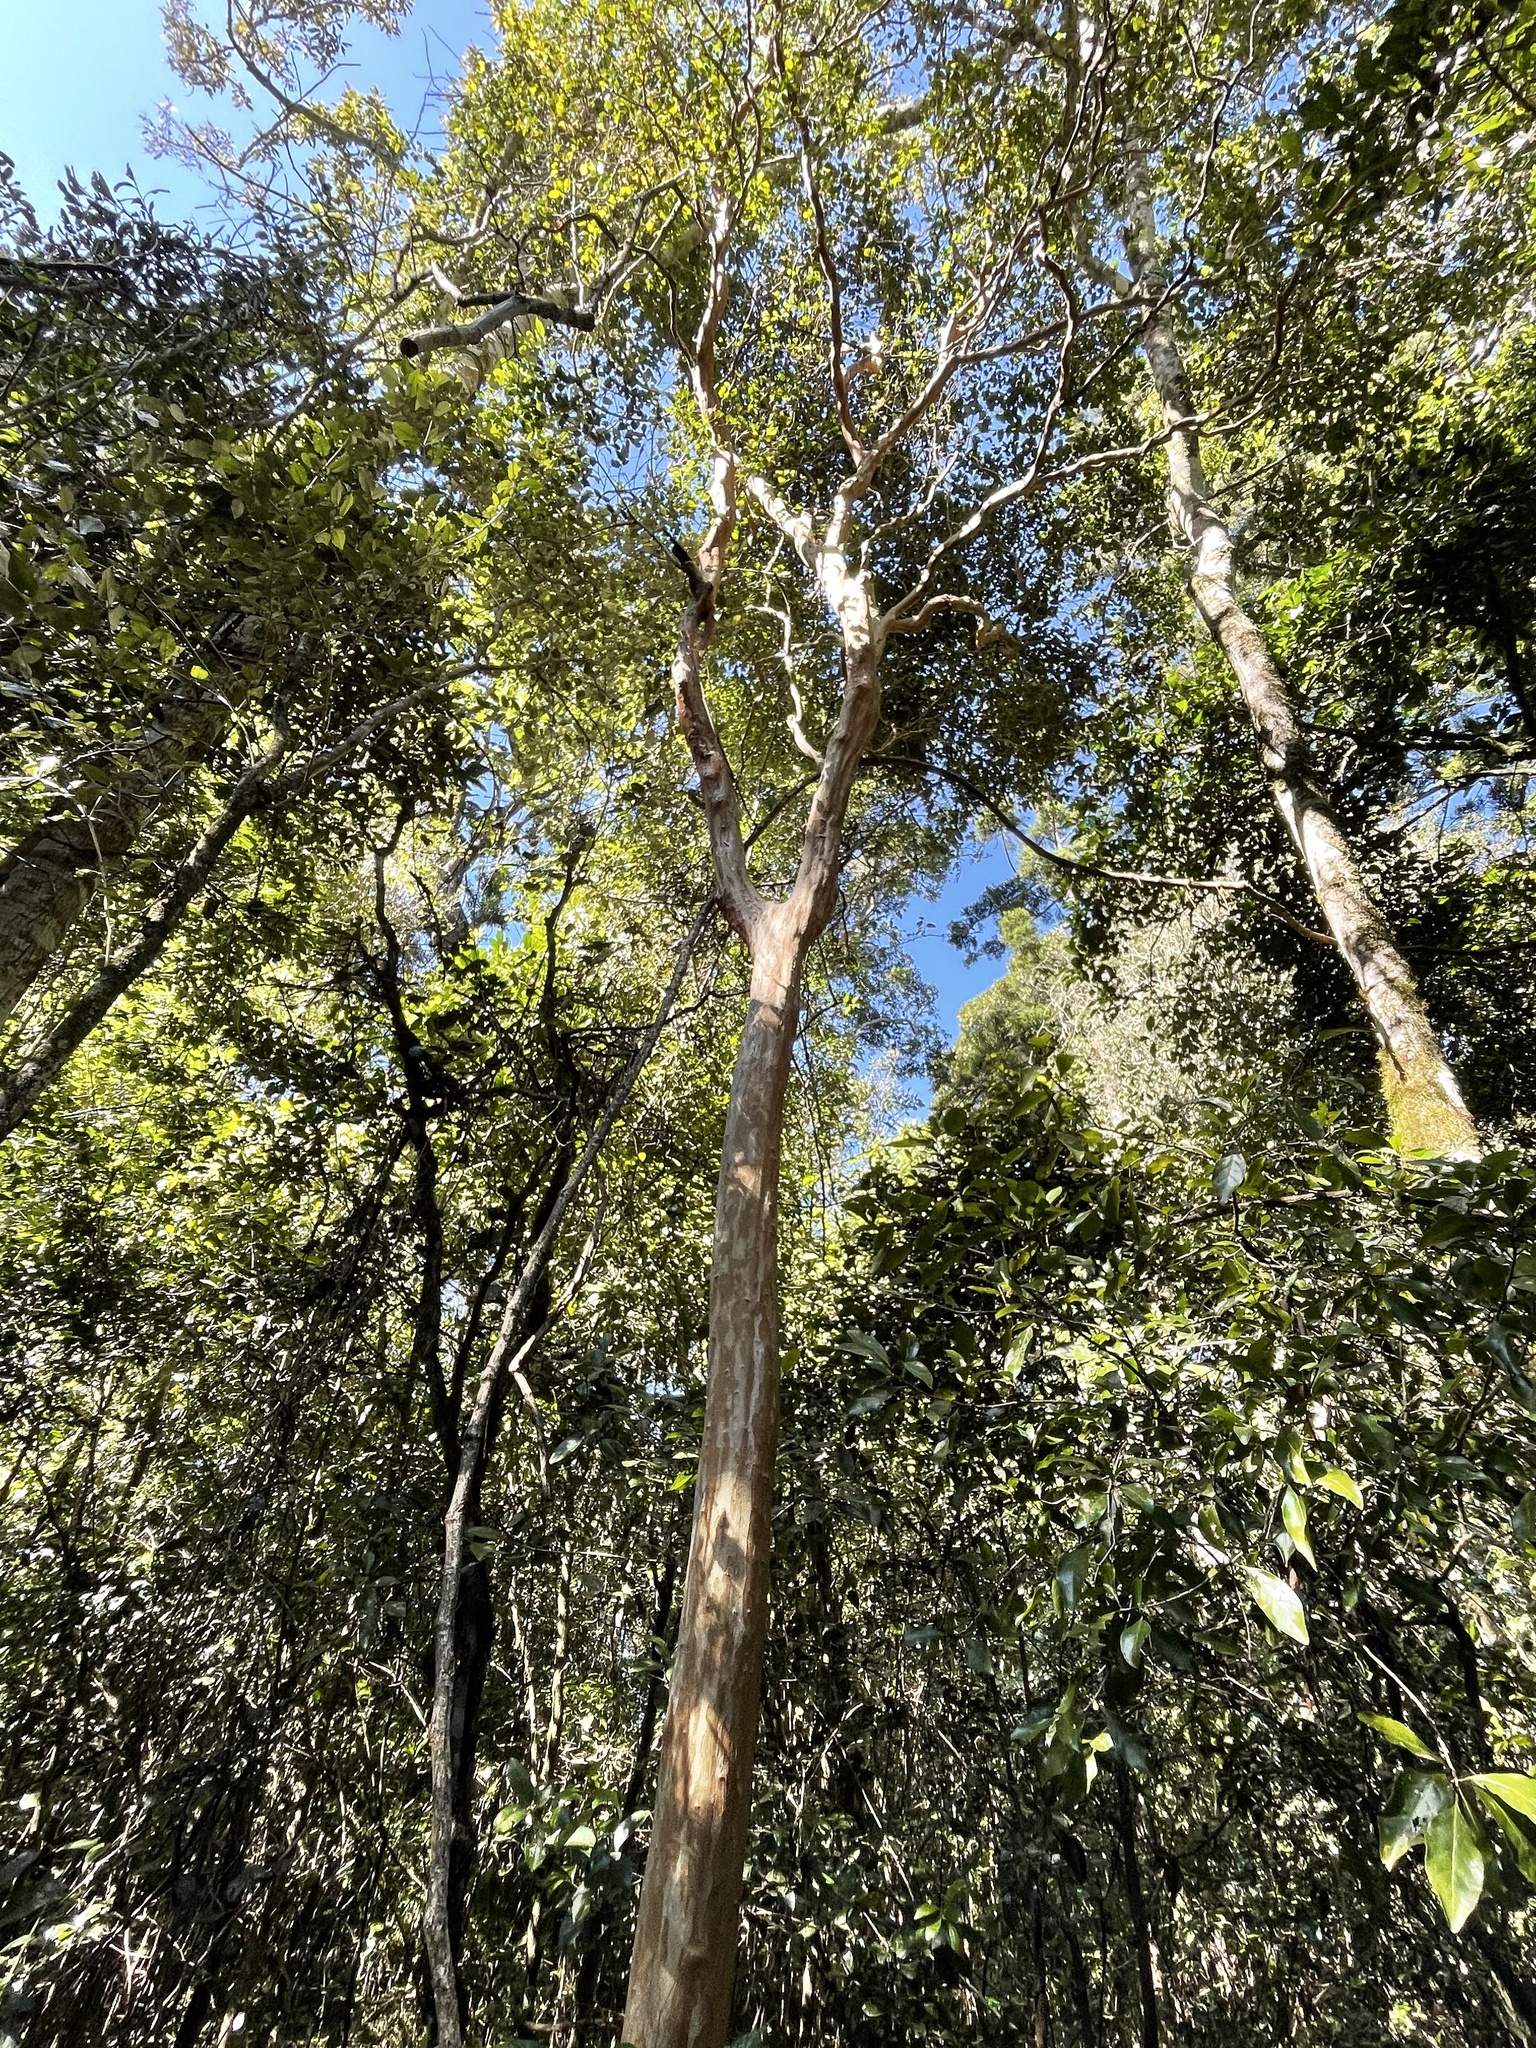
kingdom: Plantae
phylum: Tracheophyta
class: Magnoliopsida
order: Myrtales
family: Myrtaceae
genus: Gossia
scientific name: Gossia bidwillii
